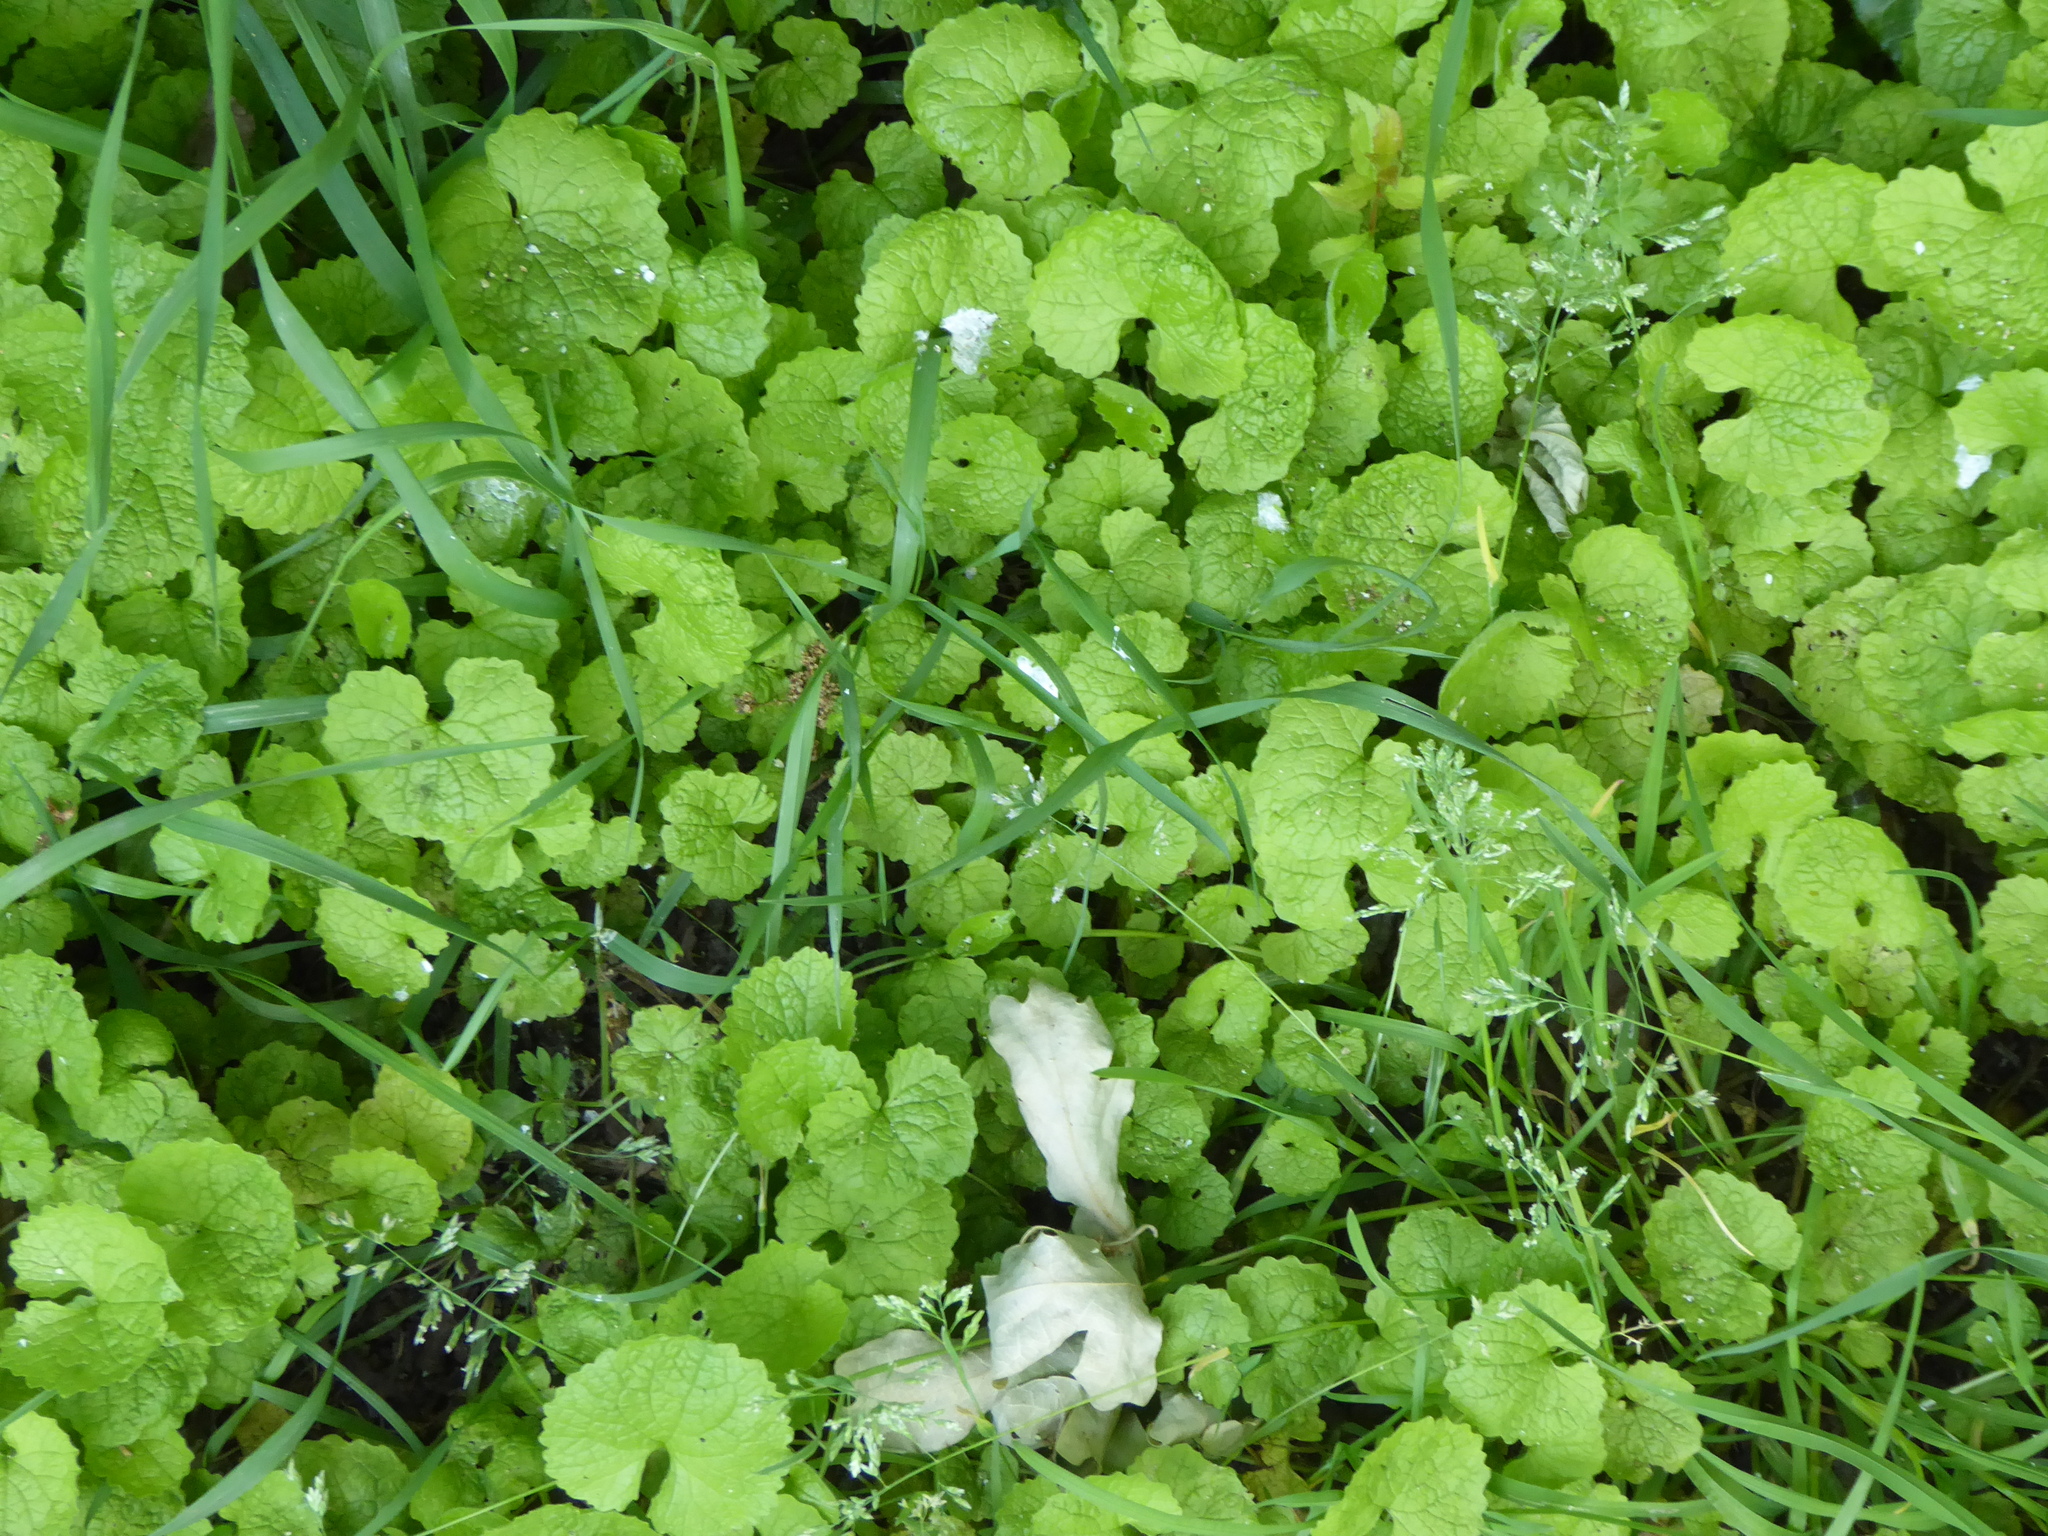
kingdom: Plantae
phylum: Tracheophyta
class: Magnoliopsida
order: Brassicales
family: Brassicaceae
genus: Alliaria
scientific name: Alliaria petiolata
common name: Garlic mustard
